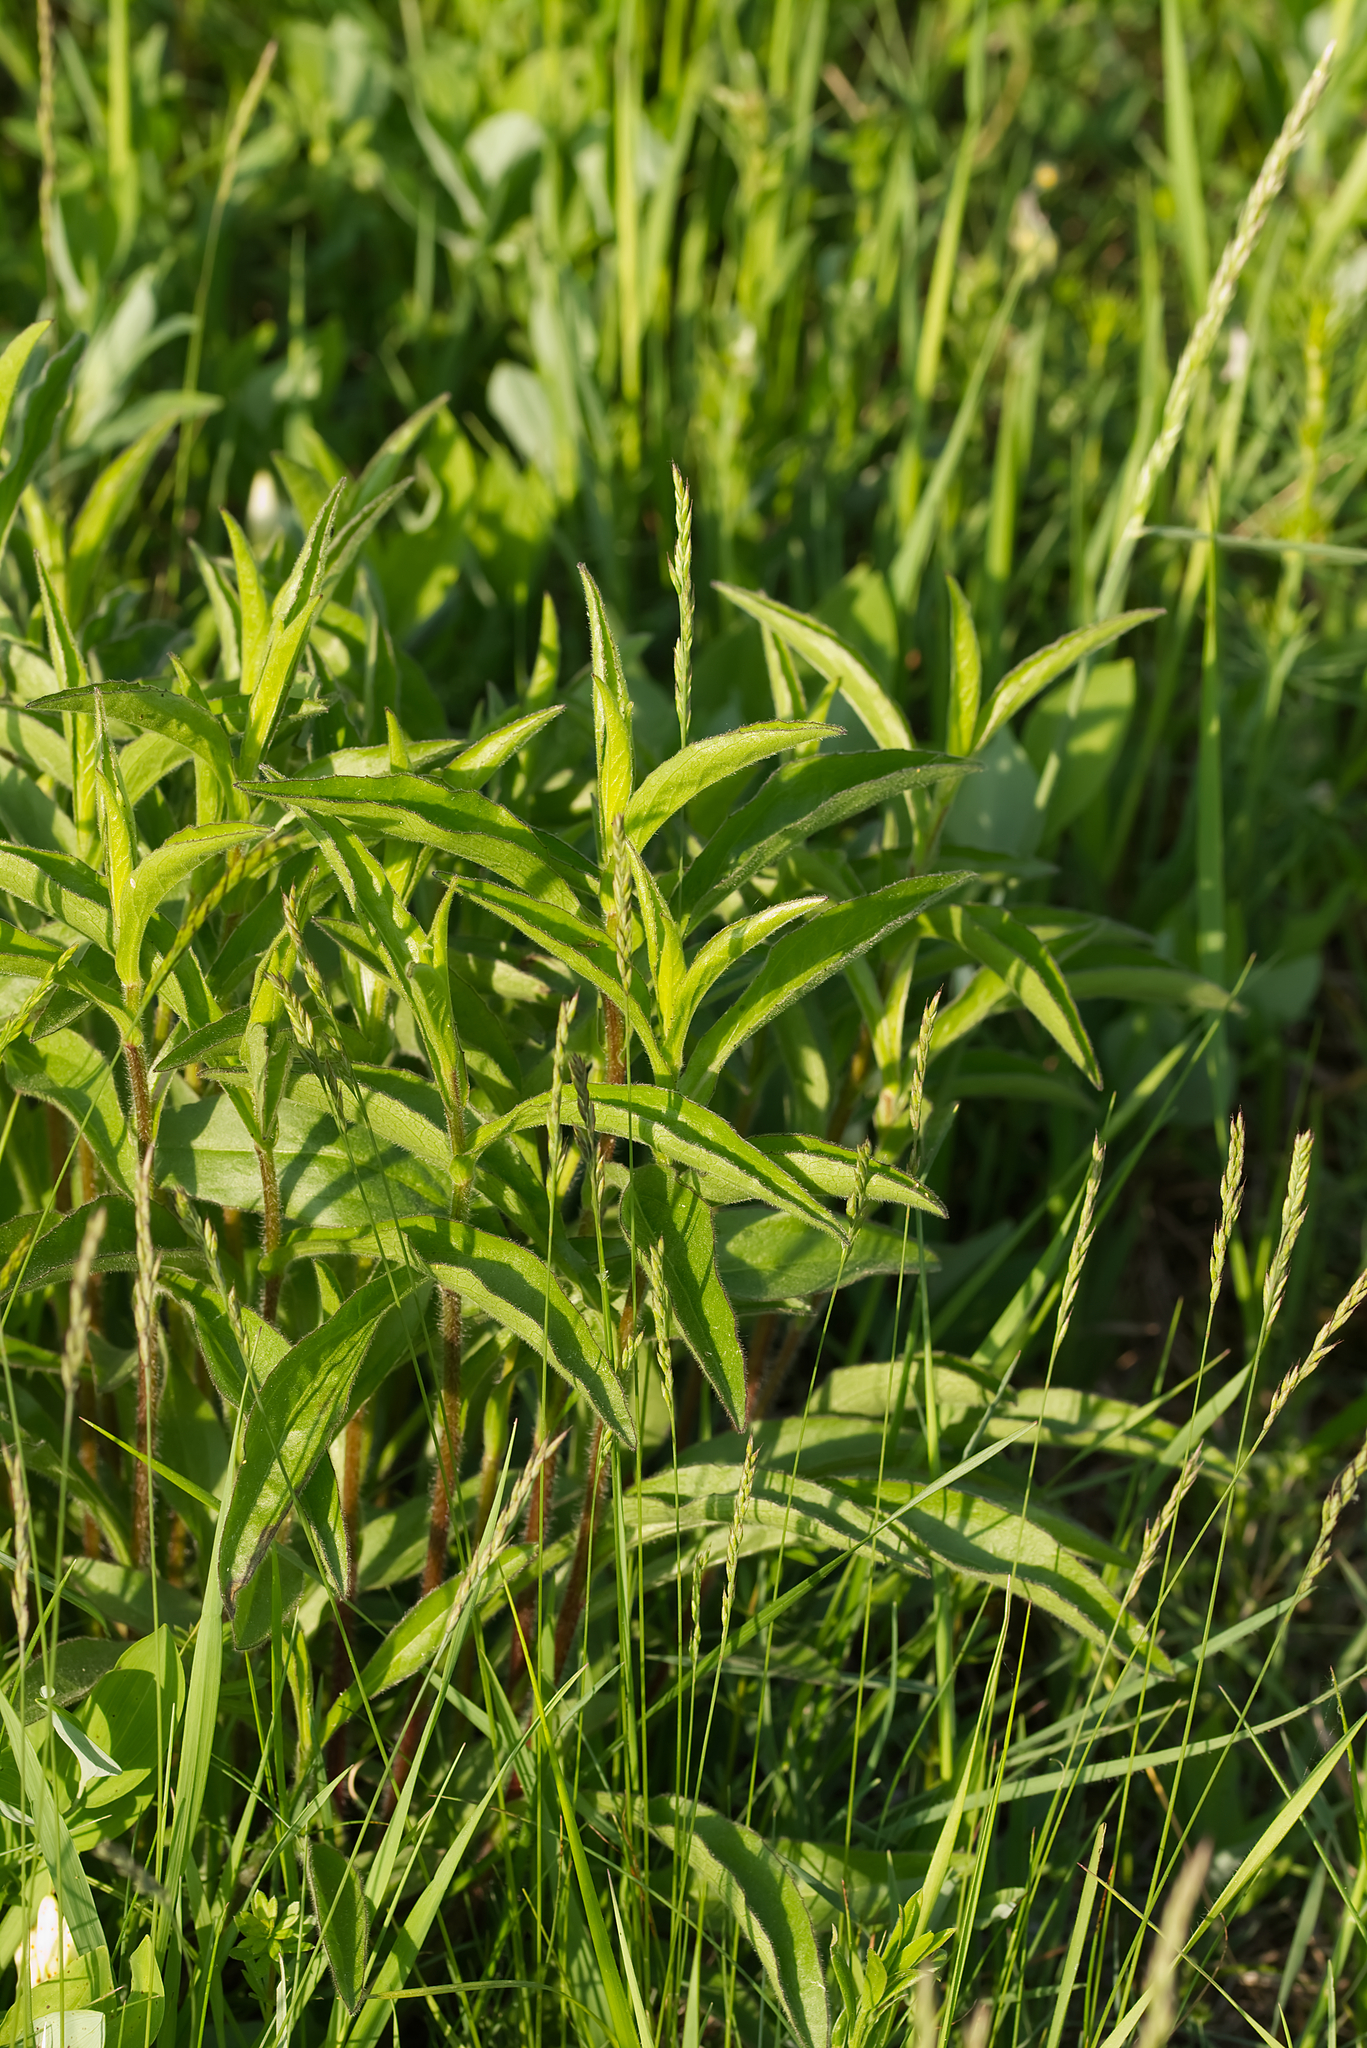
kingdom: Plantae
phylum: Tracheophyta
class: Magnoliopsida
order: Asterales
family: Asteraceae
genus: Buphthalmum
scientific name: Buphthalmum salicifolium
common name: Willow-leaved yellow-oxeye
